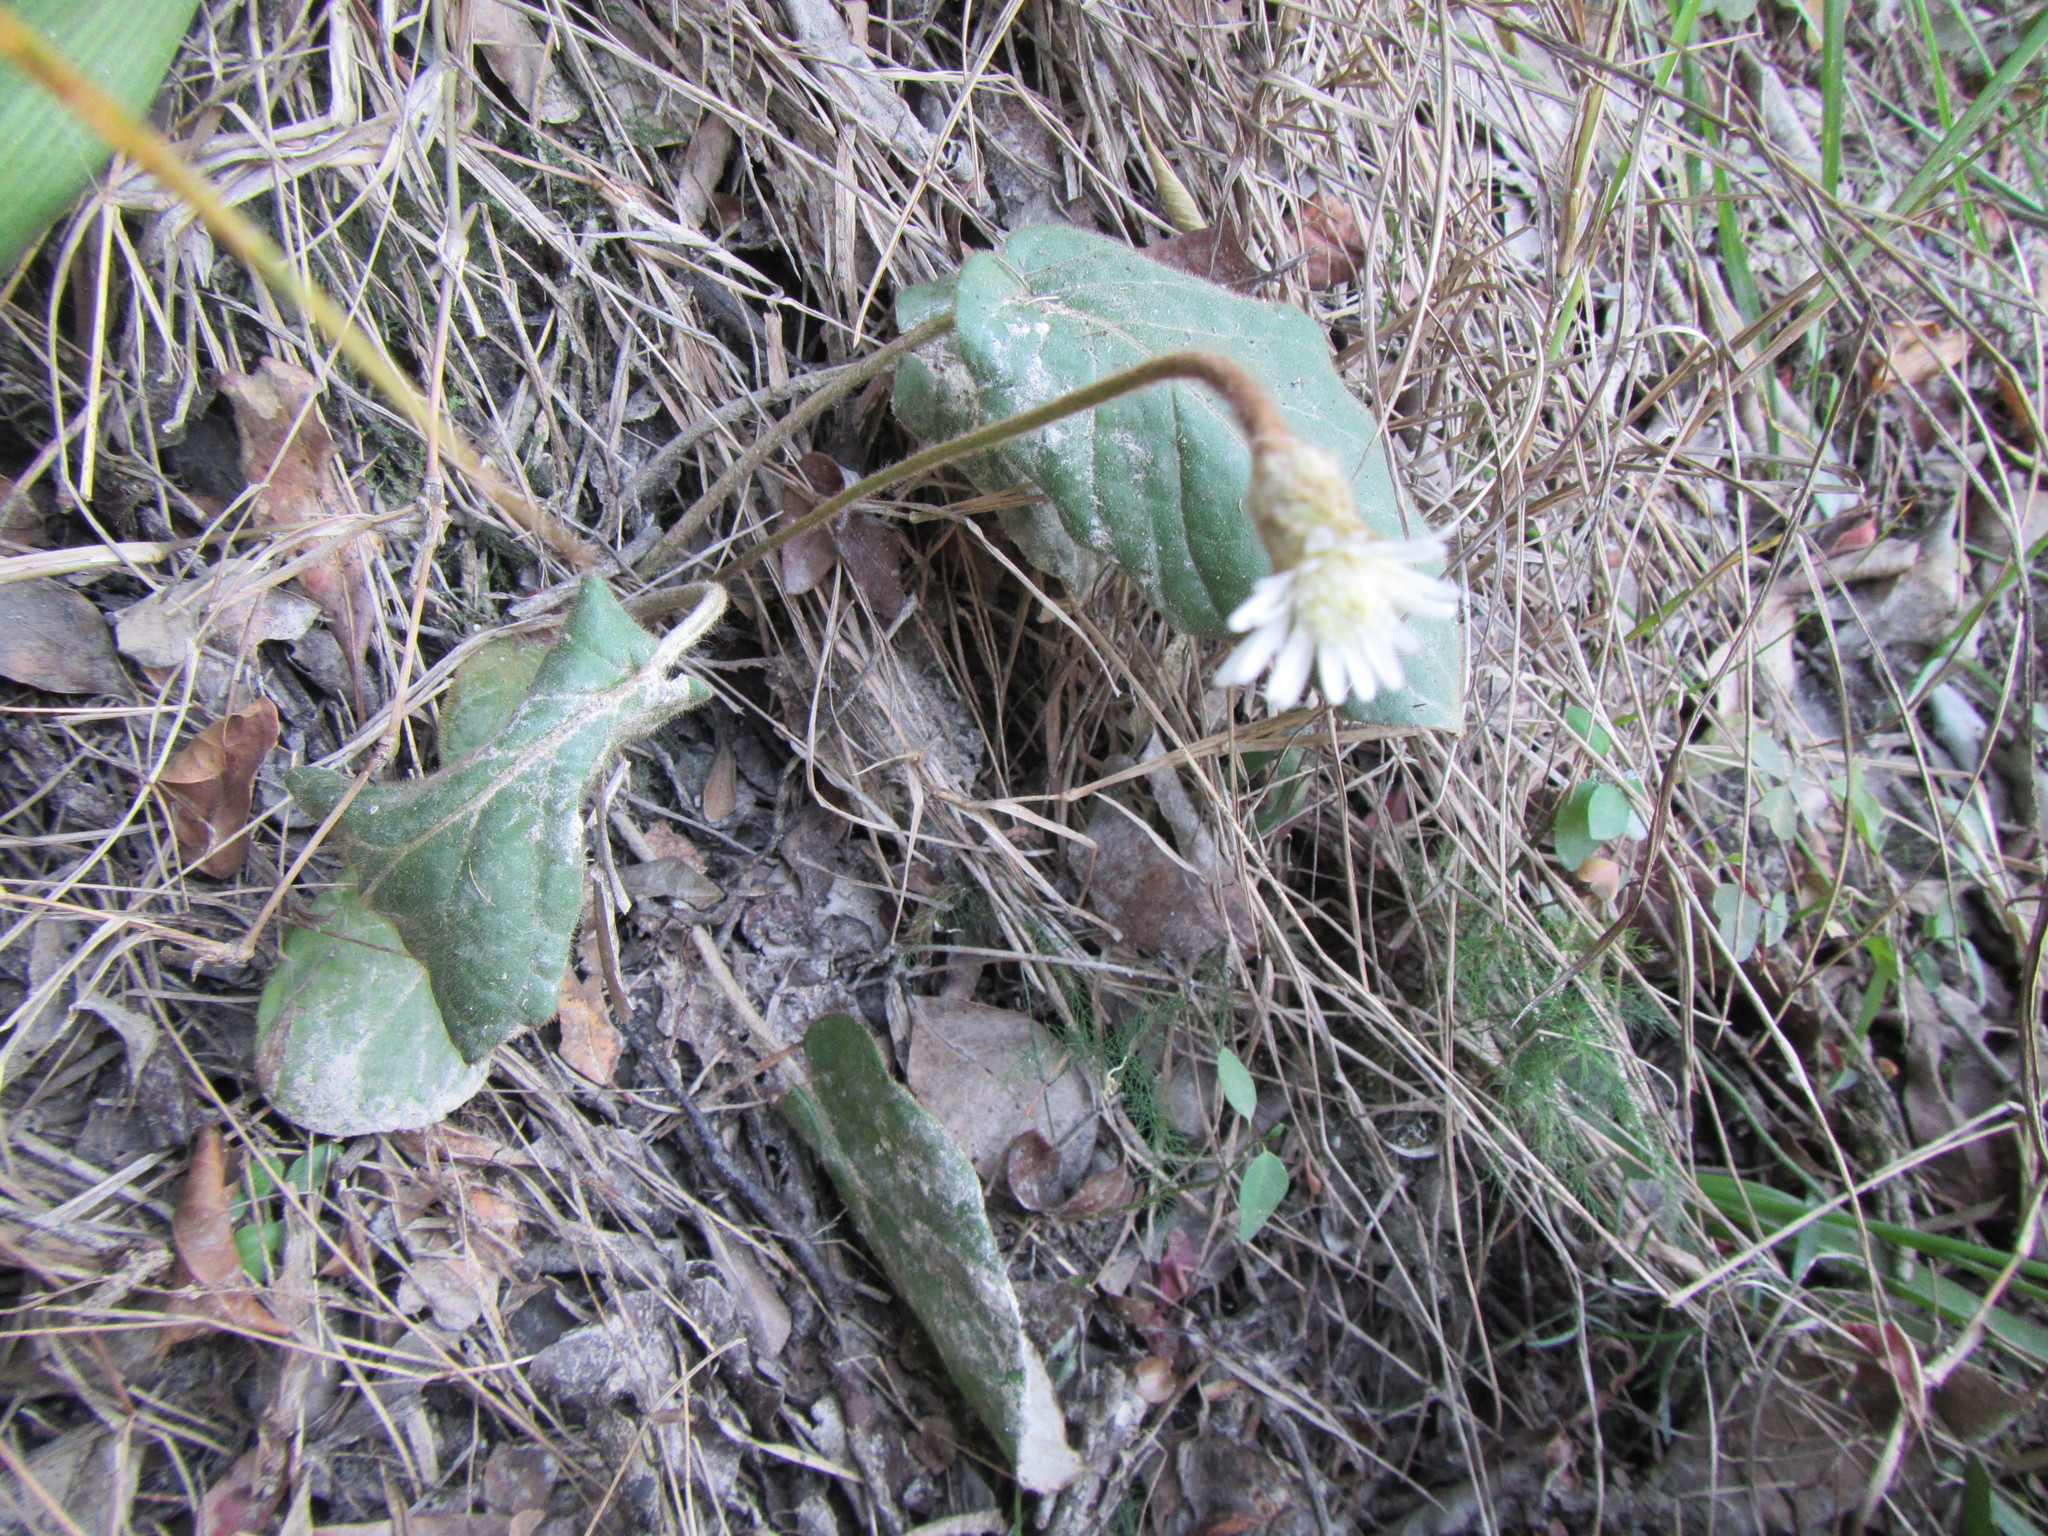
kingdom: Plantae
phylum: Tracheophyta
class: Magnoliopsida
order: Asterales
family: Asteraceae
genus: Piloselloides
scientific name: Piloselloides hirsuta
